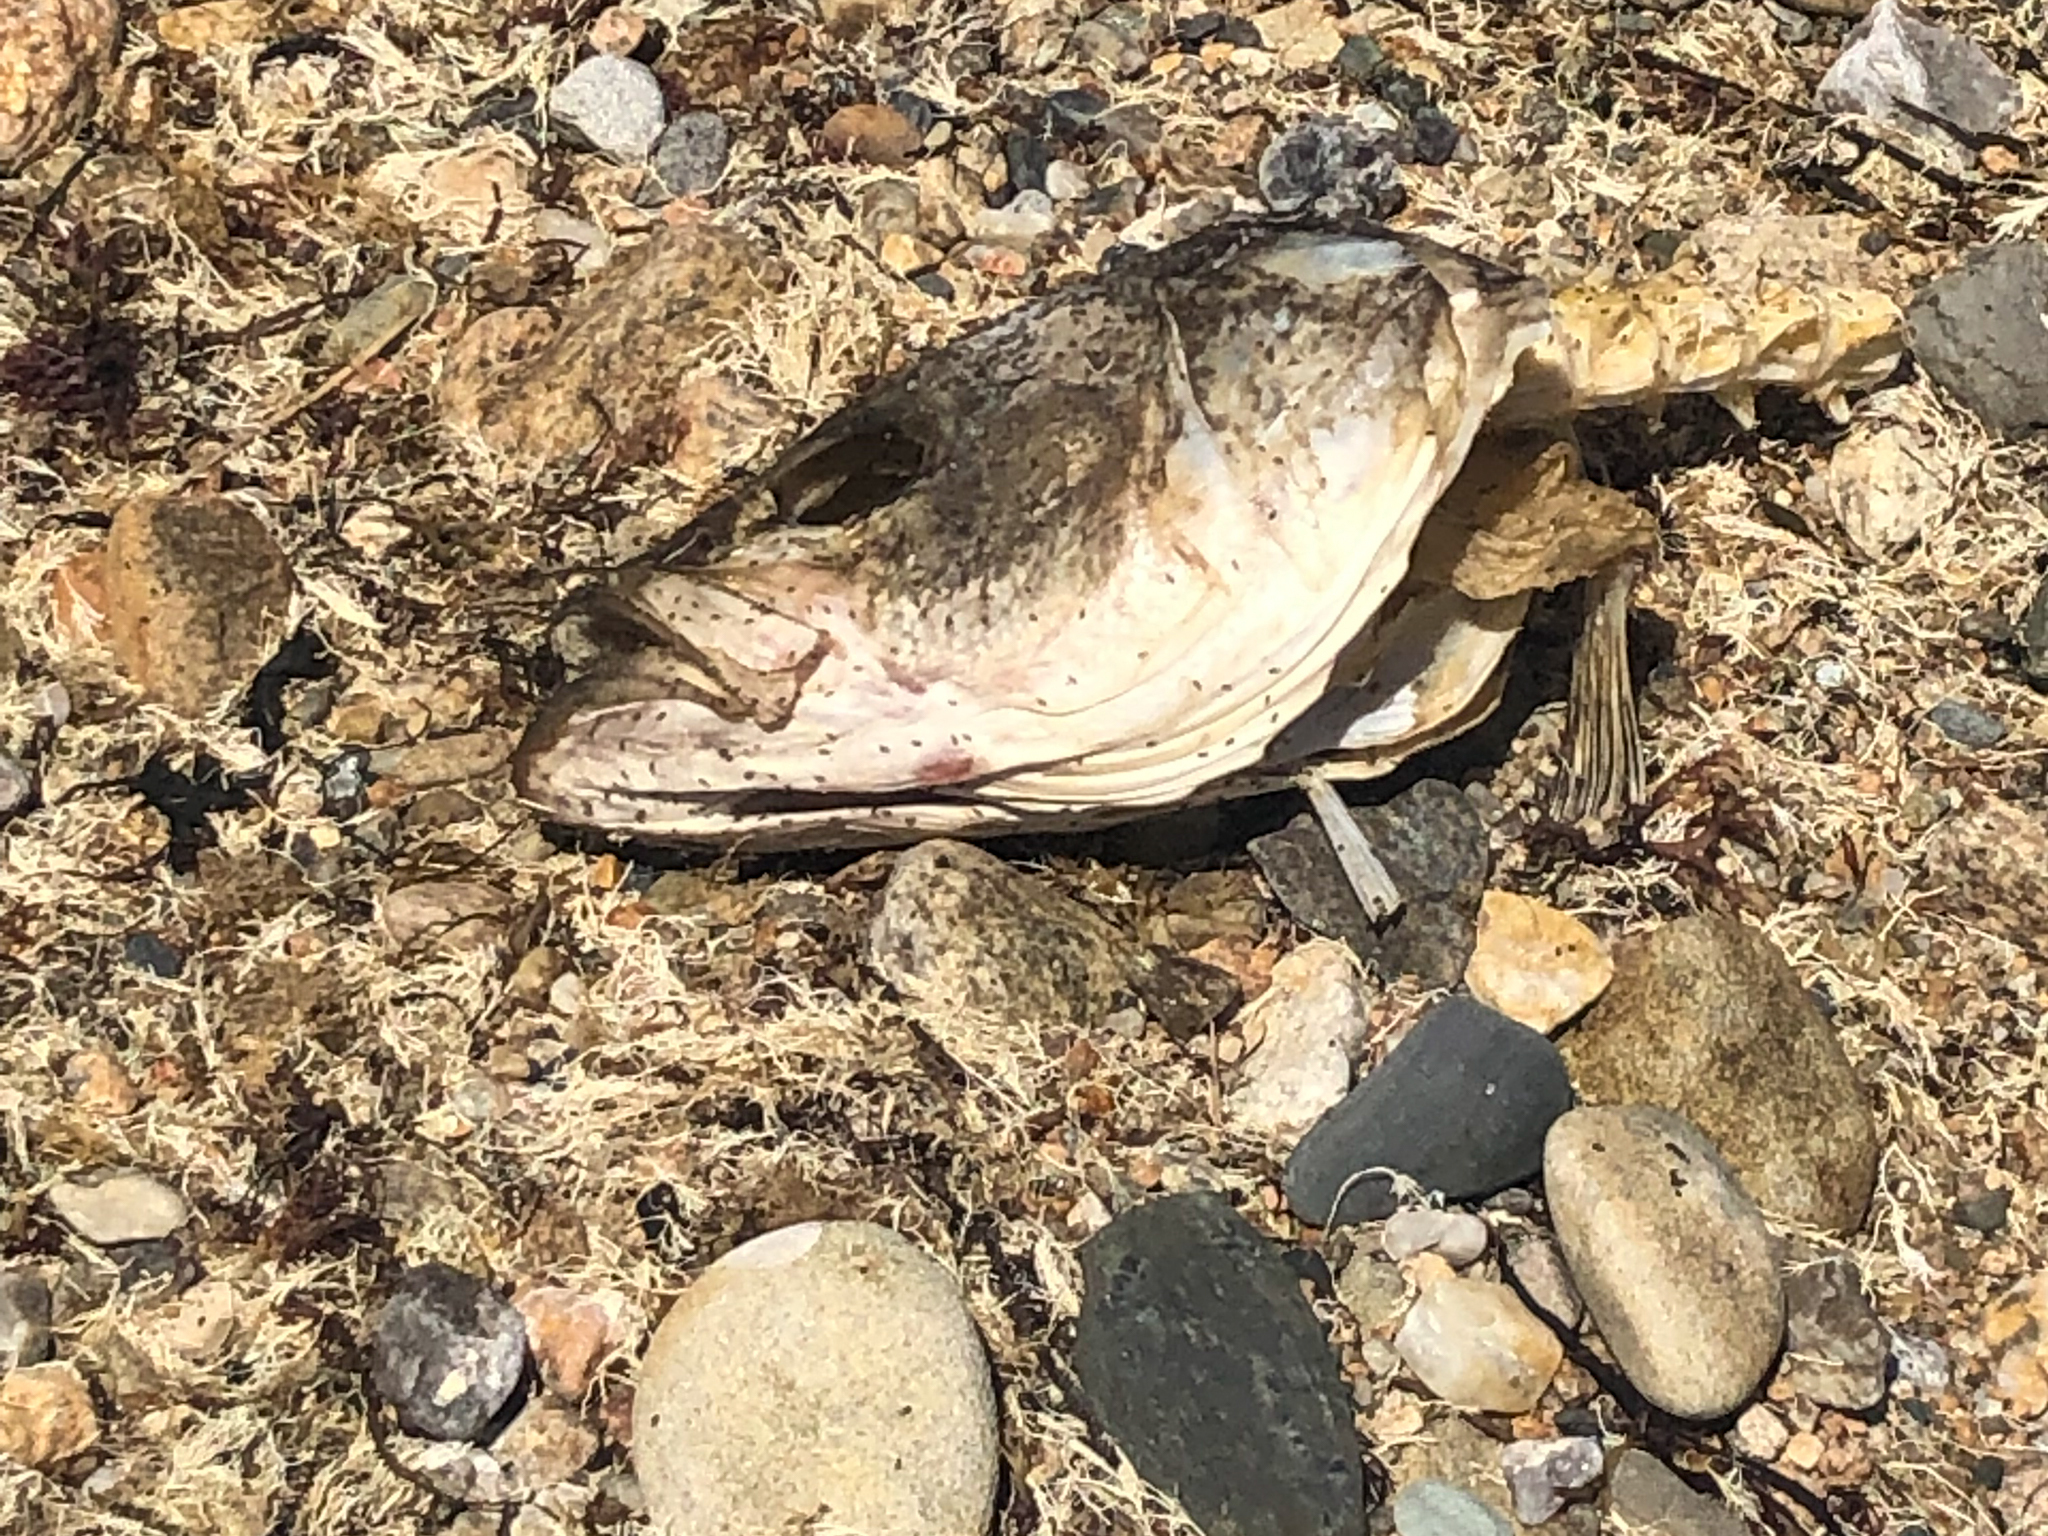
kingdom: Animalia
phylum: Chordata
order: Perciformes
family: Moronidae
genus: Morone
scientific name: Morone saxatilis
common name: Striped bass
